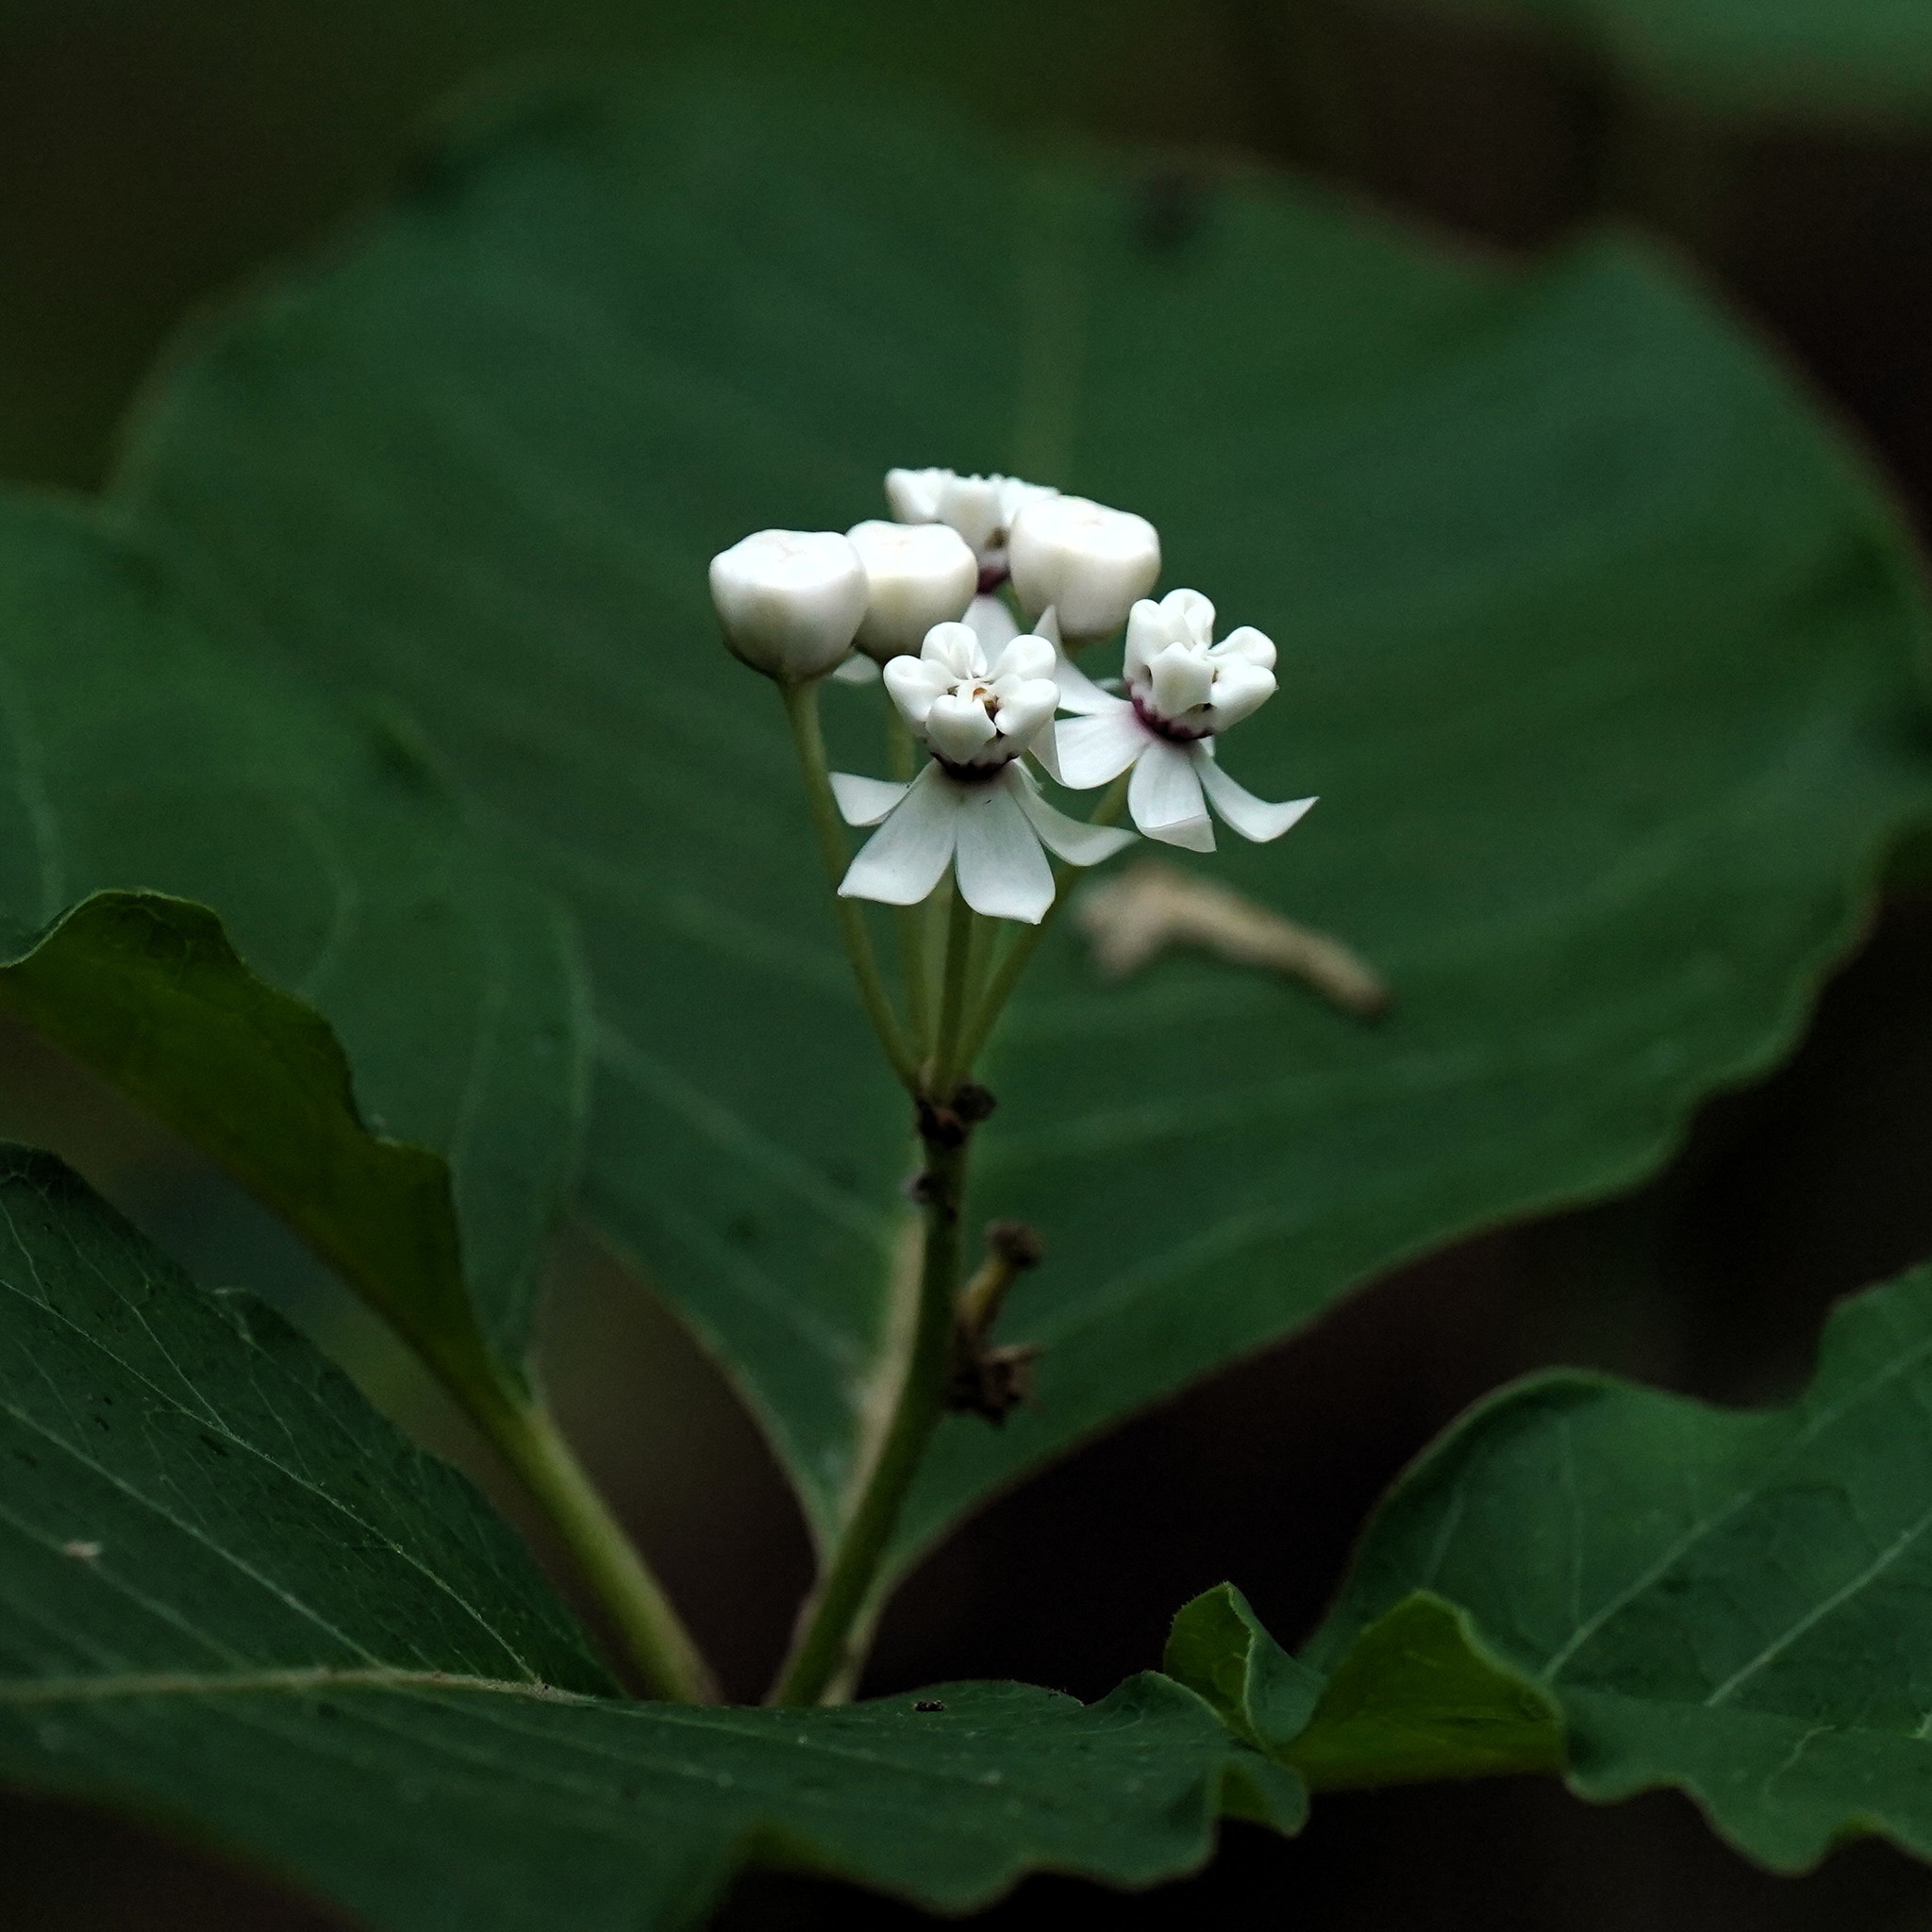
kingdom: Plantae
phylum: Tracheophyta
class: Magnoliopsida
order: Gentianales
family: Apocynaceae
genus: Asclepias
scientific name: Asclepias variegata
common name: Variegated milkweed
